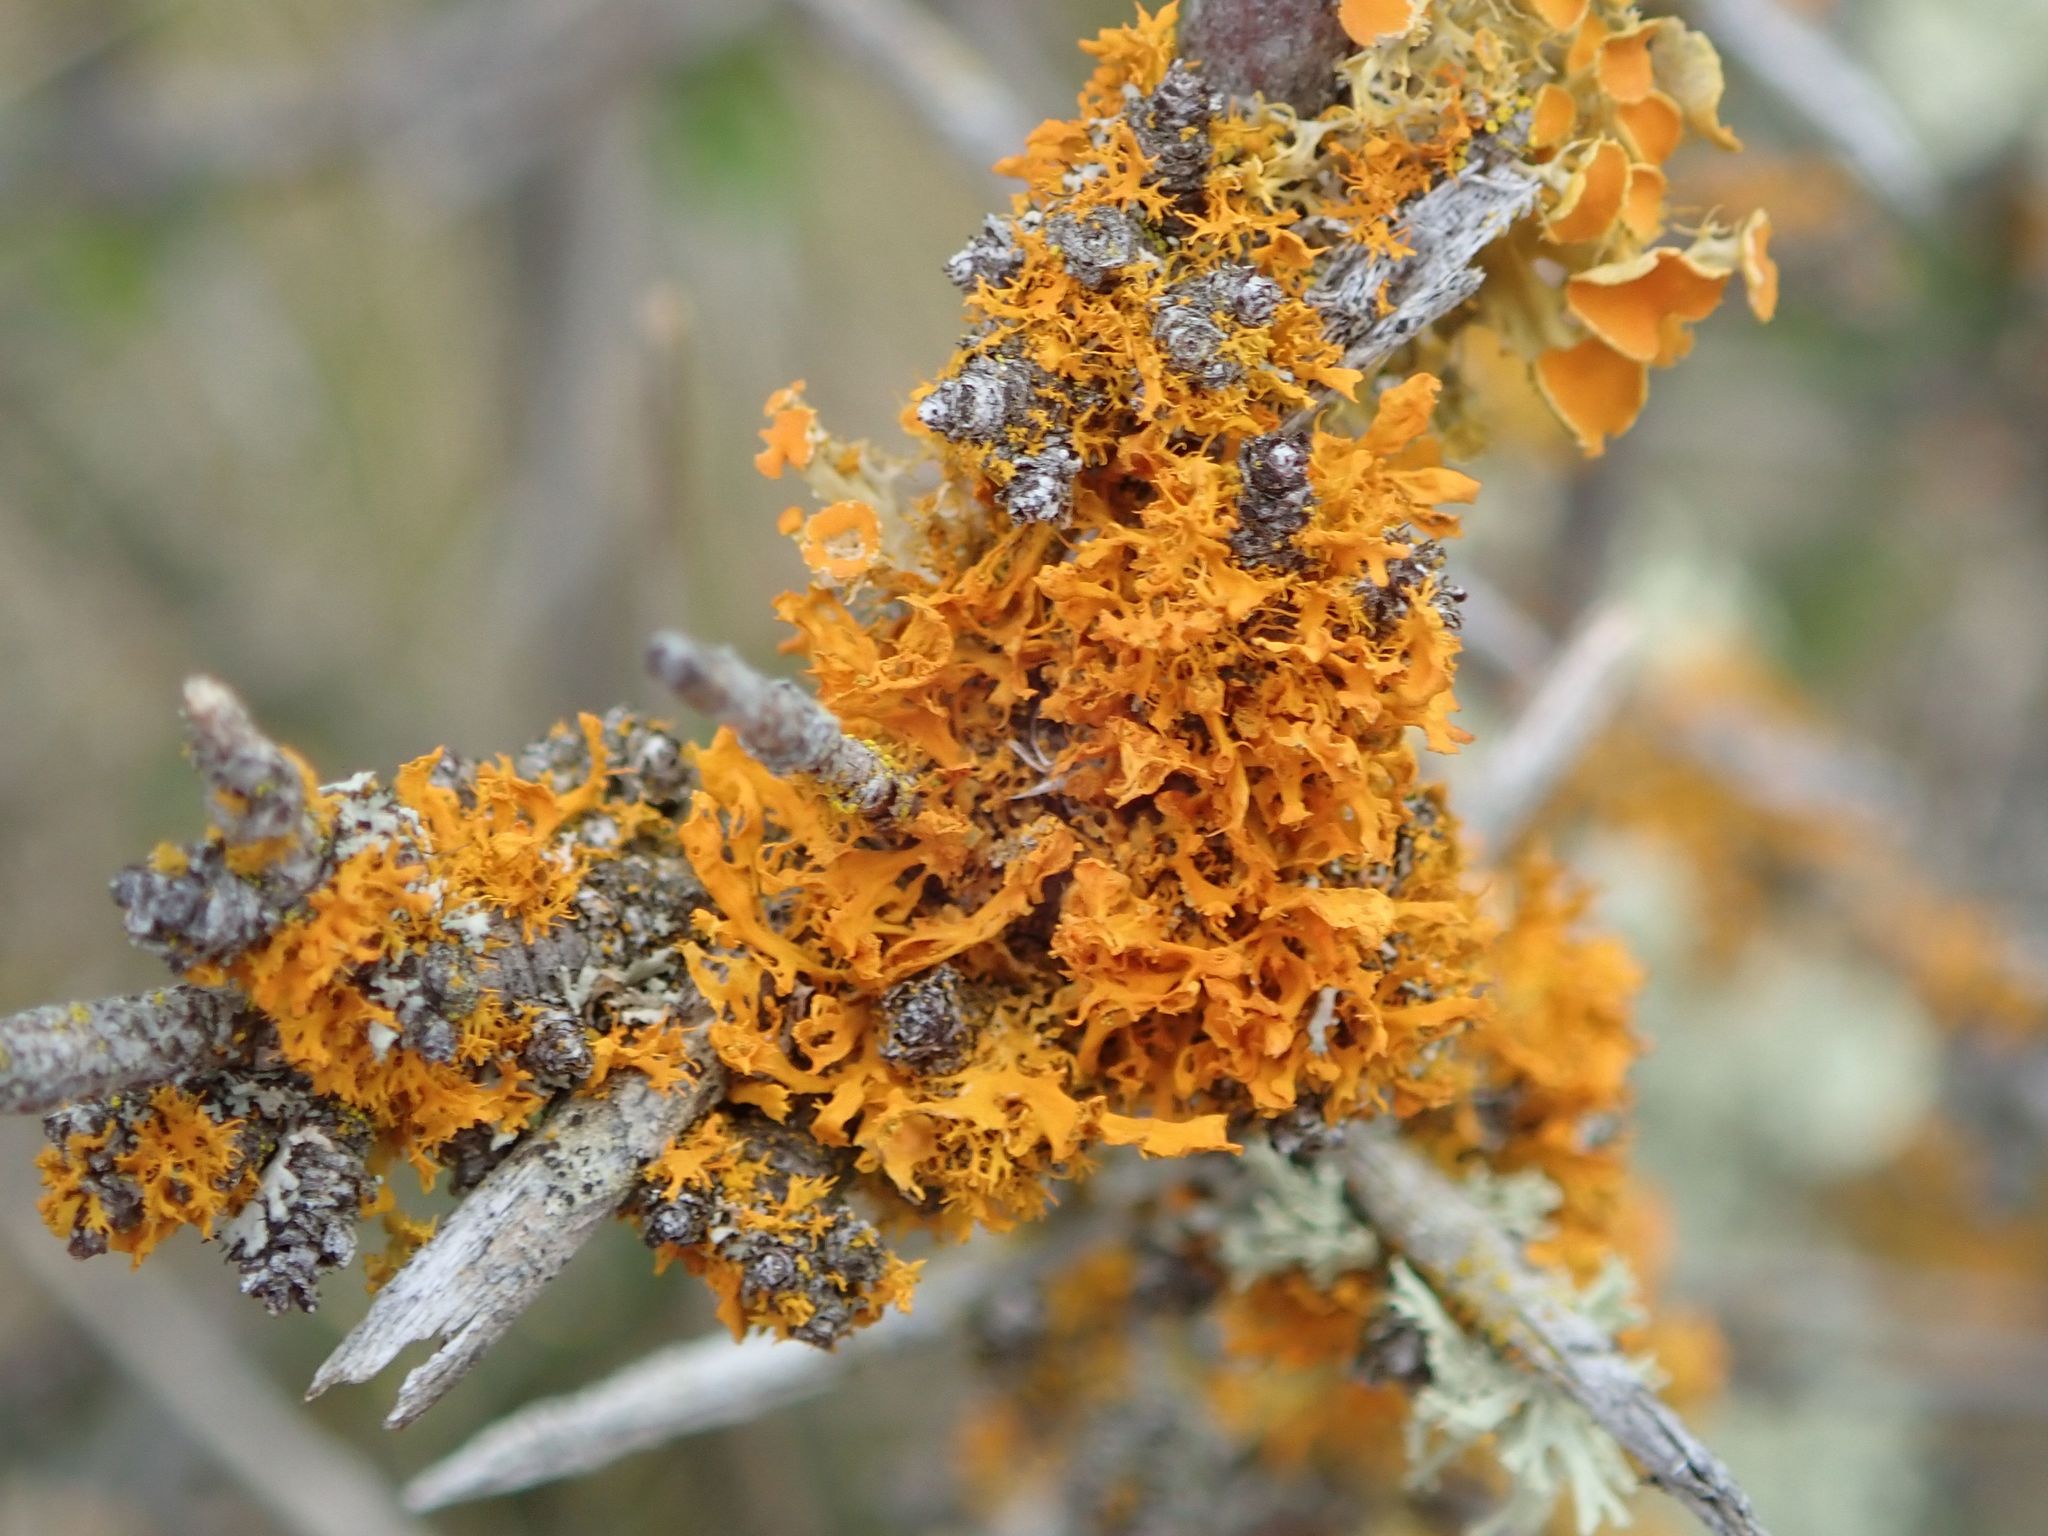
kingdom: Fungi
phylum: Ascomycota
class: Lecanoromycetes
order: Teloschistales
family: Teloschistaceae
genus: Teloschistes
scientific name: Teloschistes velifer
